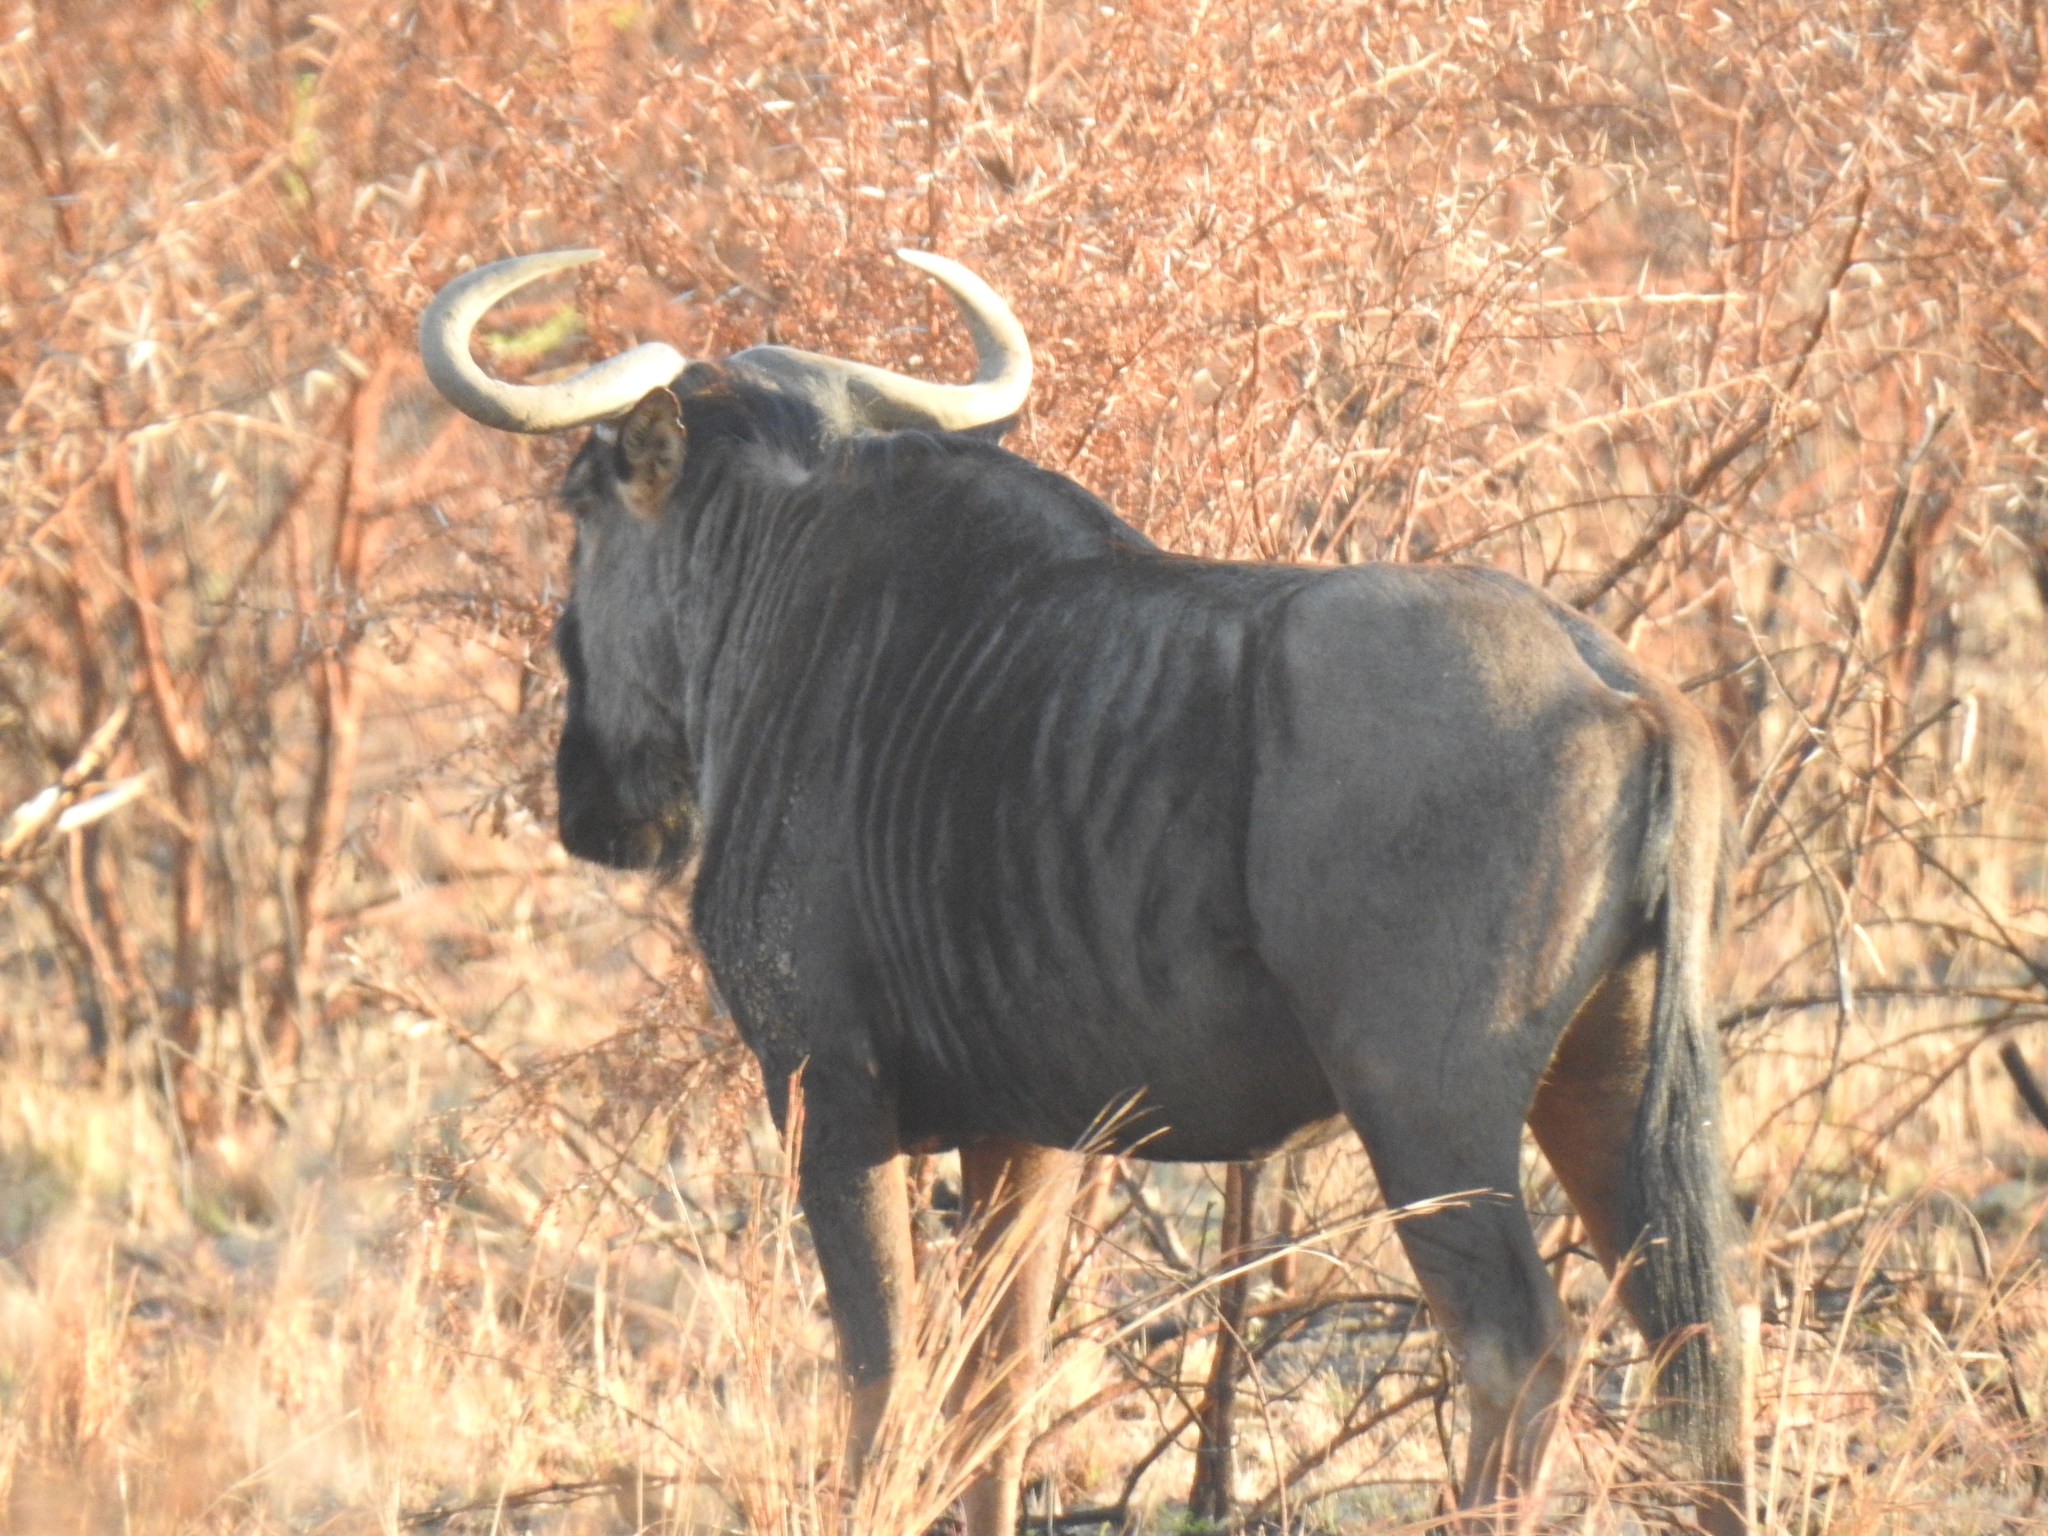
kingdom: Animalia
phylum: Chordata
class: Mammalia
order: Artiodactyla
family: Bovidae
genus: Connochaetes
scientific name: Connochaetes taurinus
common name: Blue wildebeest
